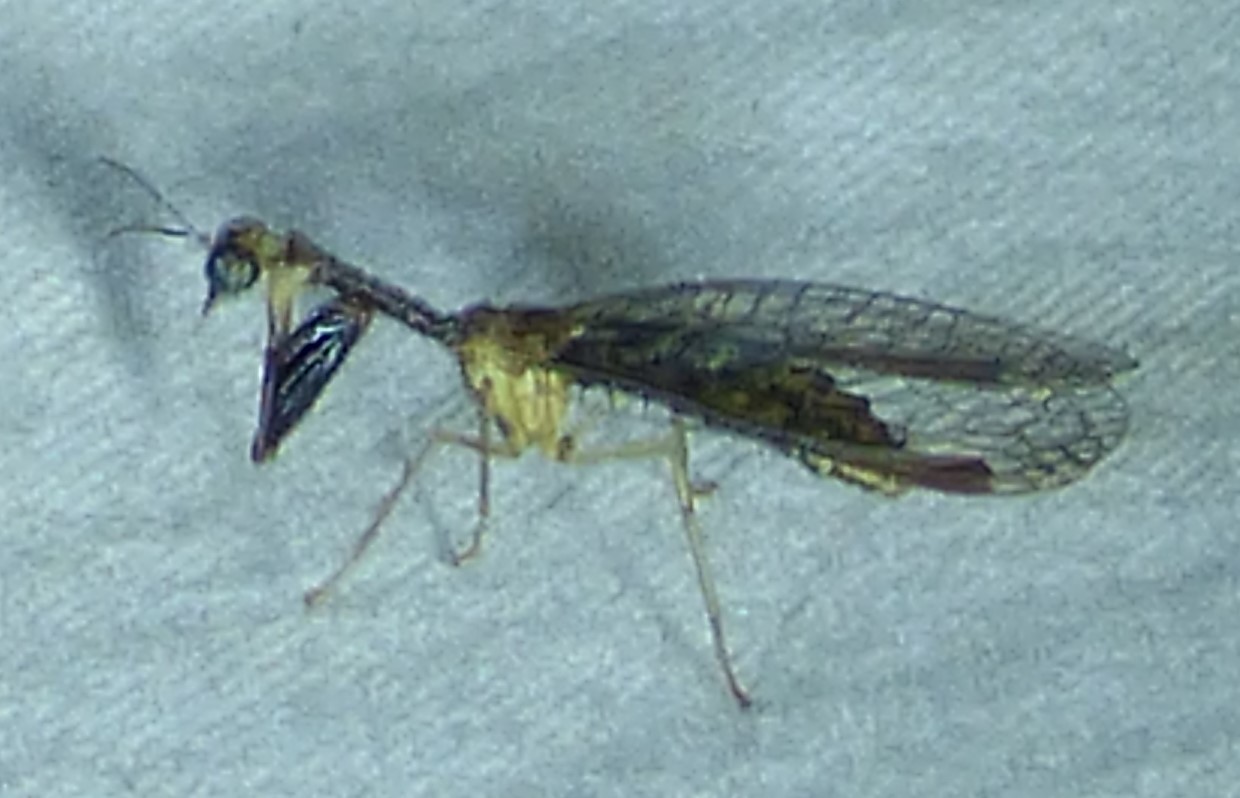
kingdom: Animalia
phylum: Arthropoda
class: Insecta
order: Neuroptera
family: Mantispidae
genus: Dicromantispa
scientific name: Dicromantispa sayi
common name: Say's mantidfly
